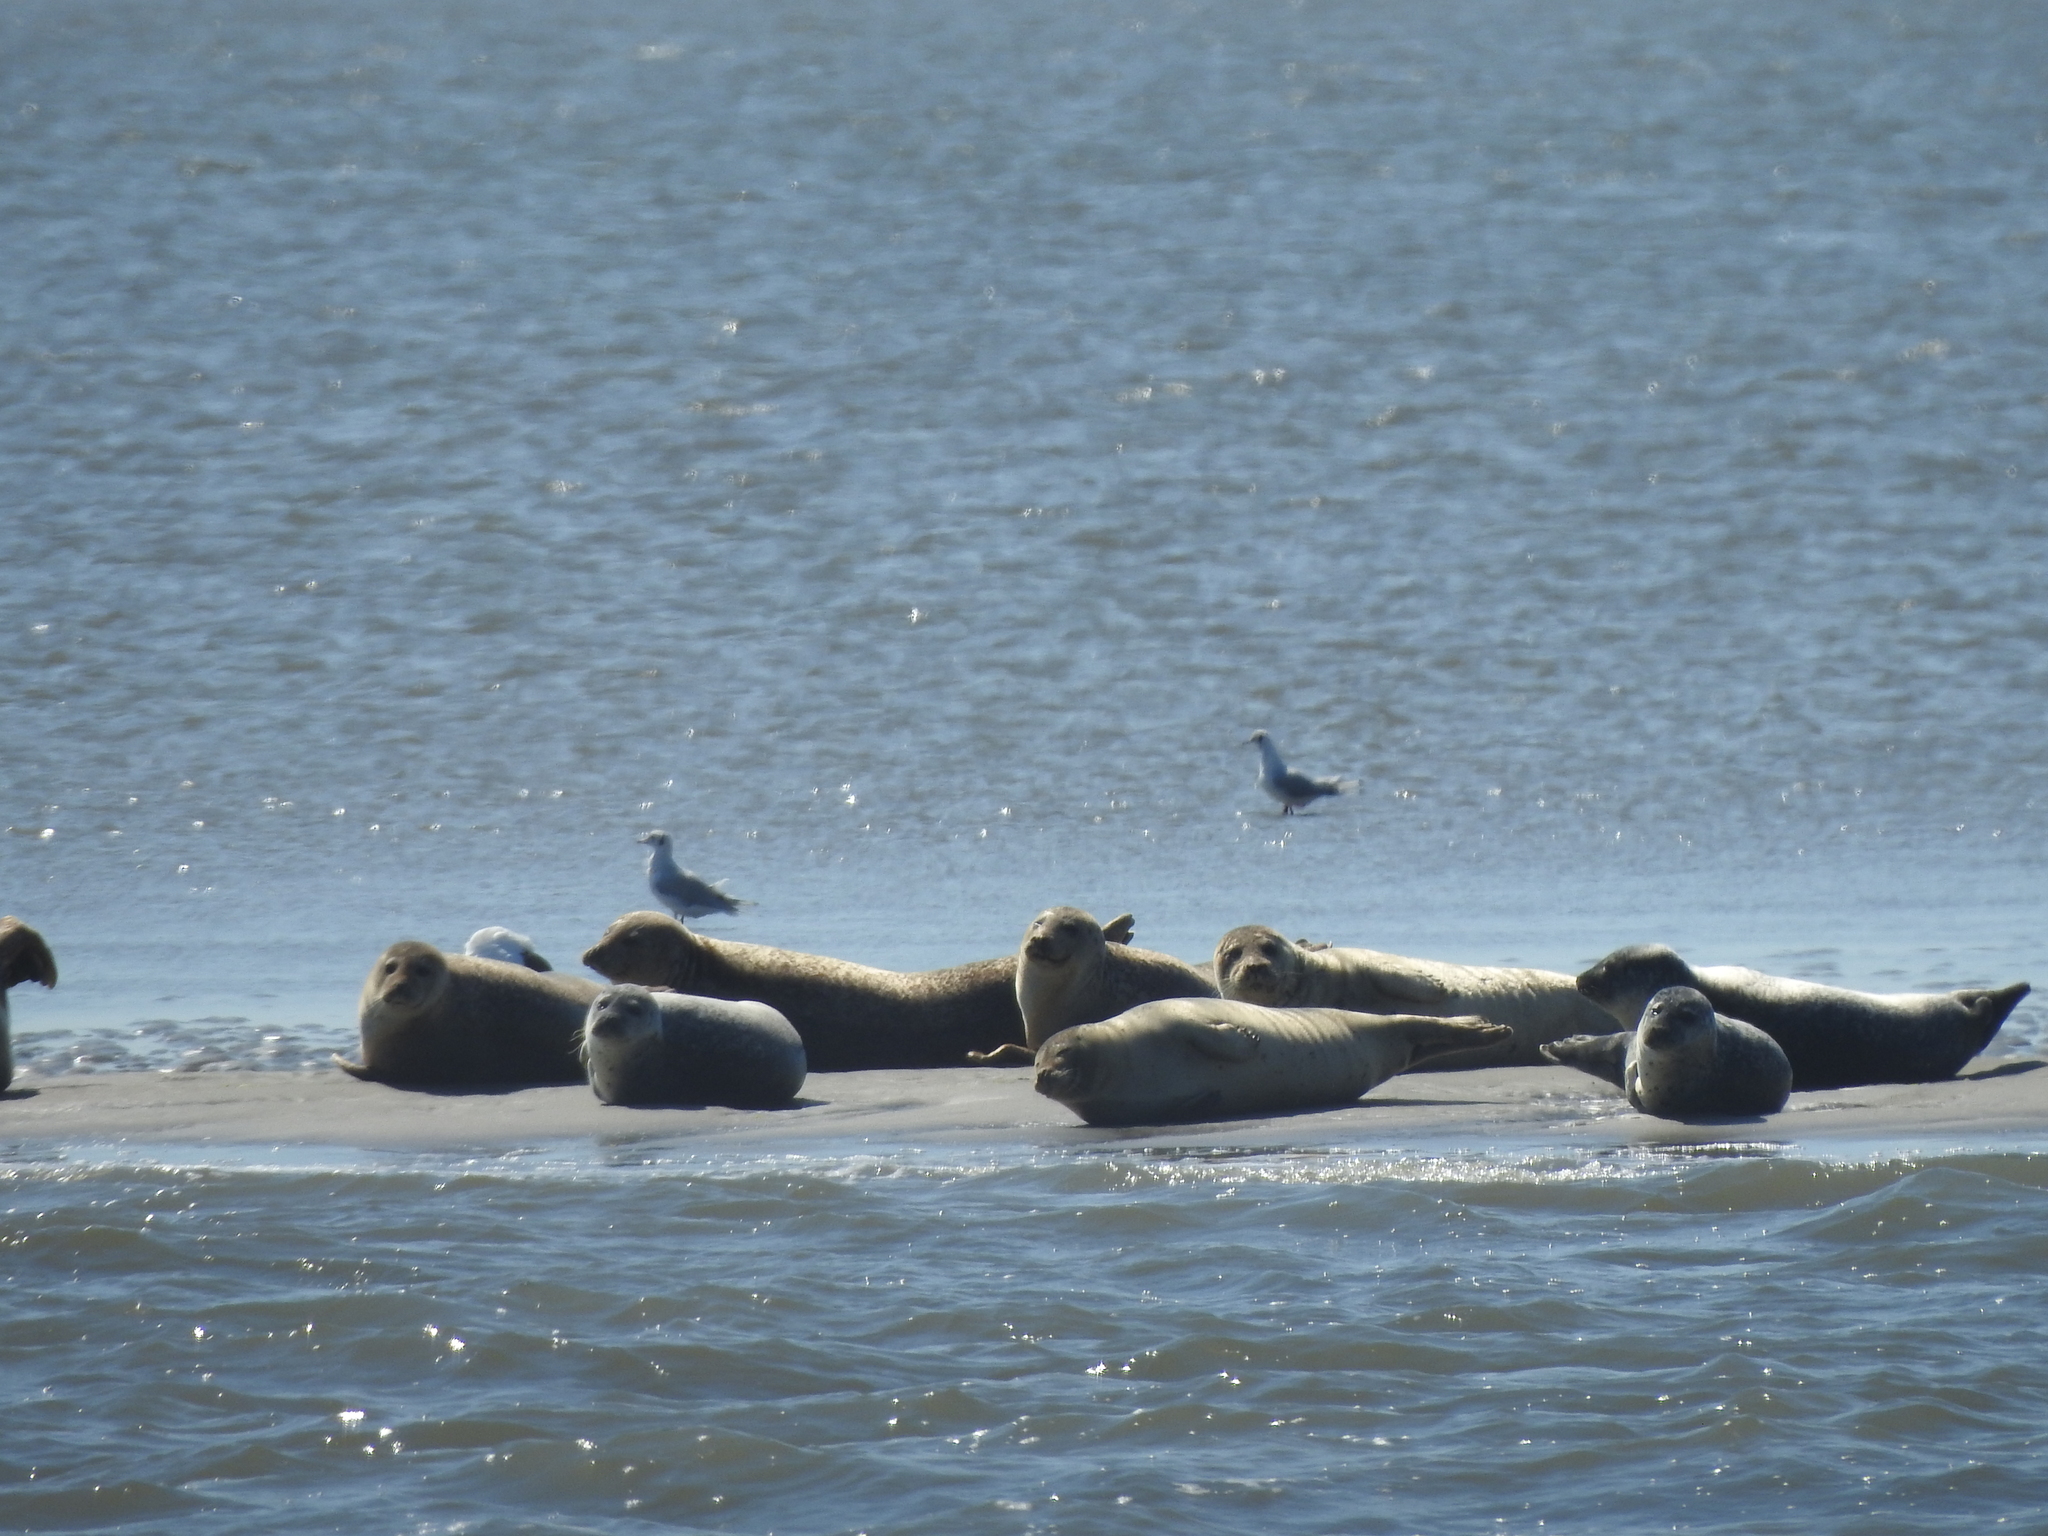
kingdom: Animalia
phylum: Chordata
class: Mammalia
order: Carnivora
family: Phocidae
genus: Phoca
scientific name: Phoca vitulina
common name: Harbor seal
